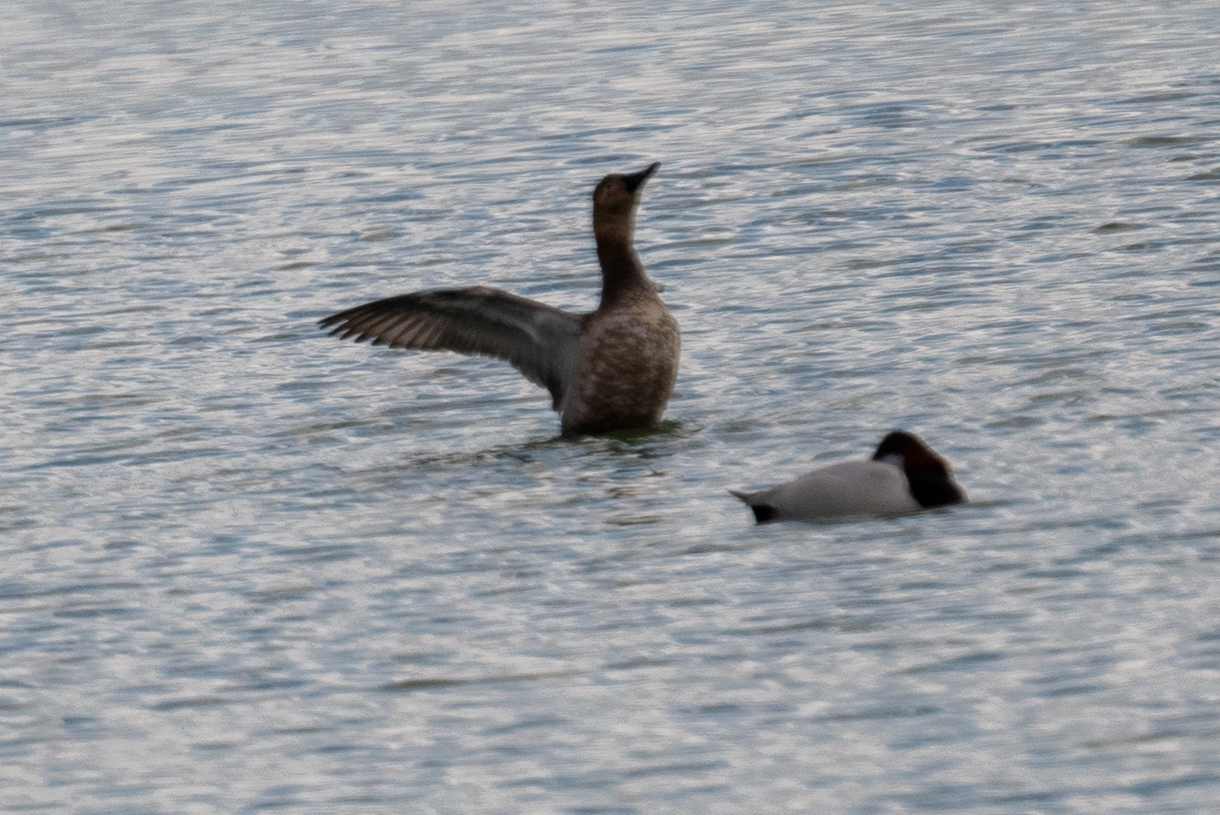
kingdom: Animalia
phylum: Chordata
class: Aves
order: Anseriformes
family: Anatidae
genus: Aythya
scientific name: Aythya valisineria
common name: Canvasback
